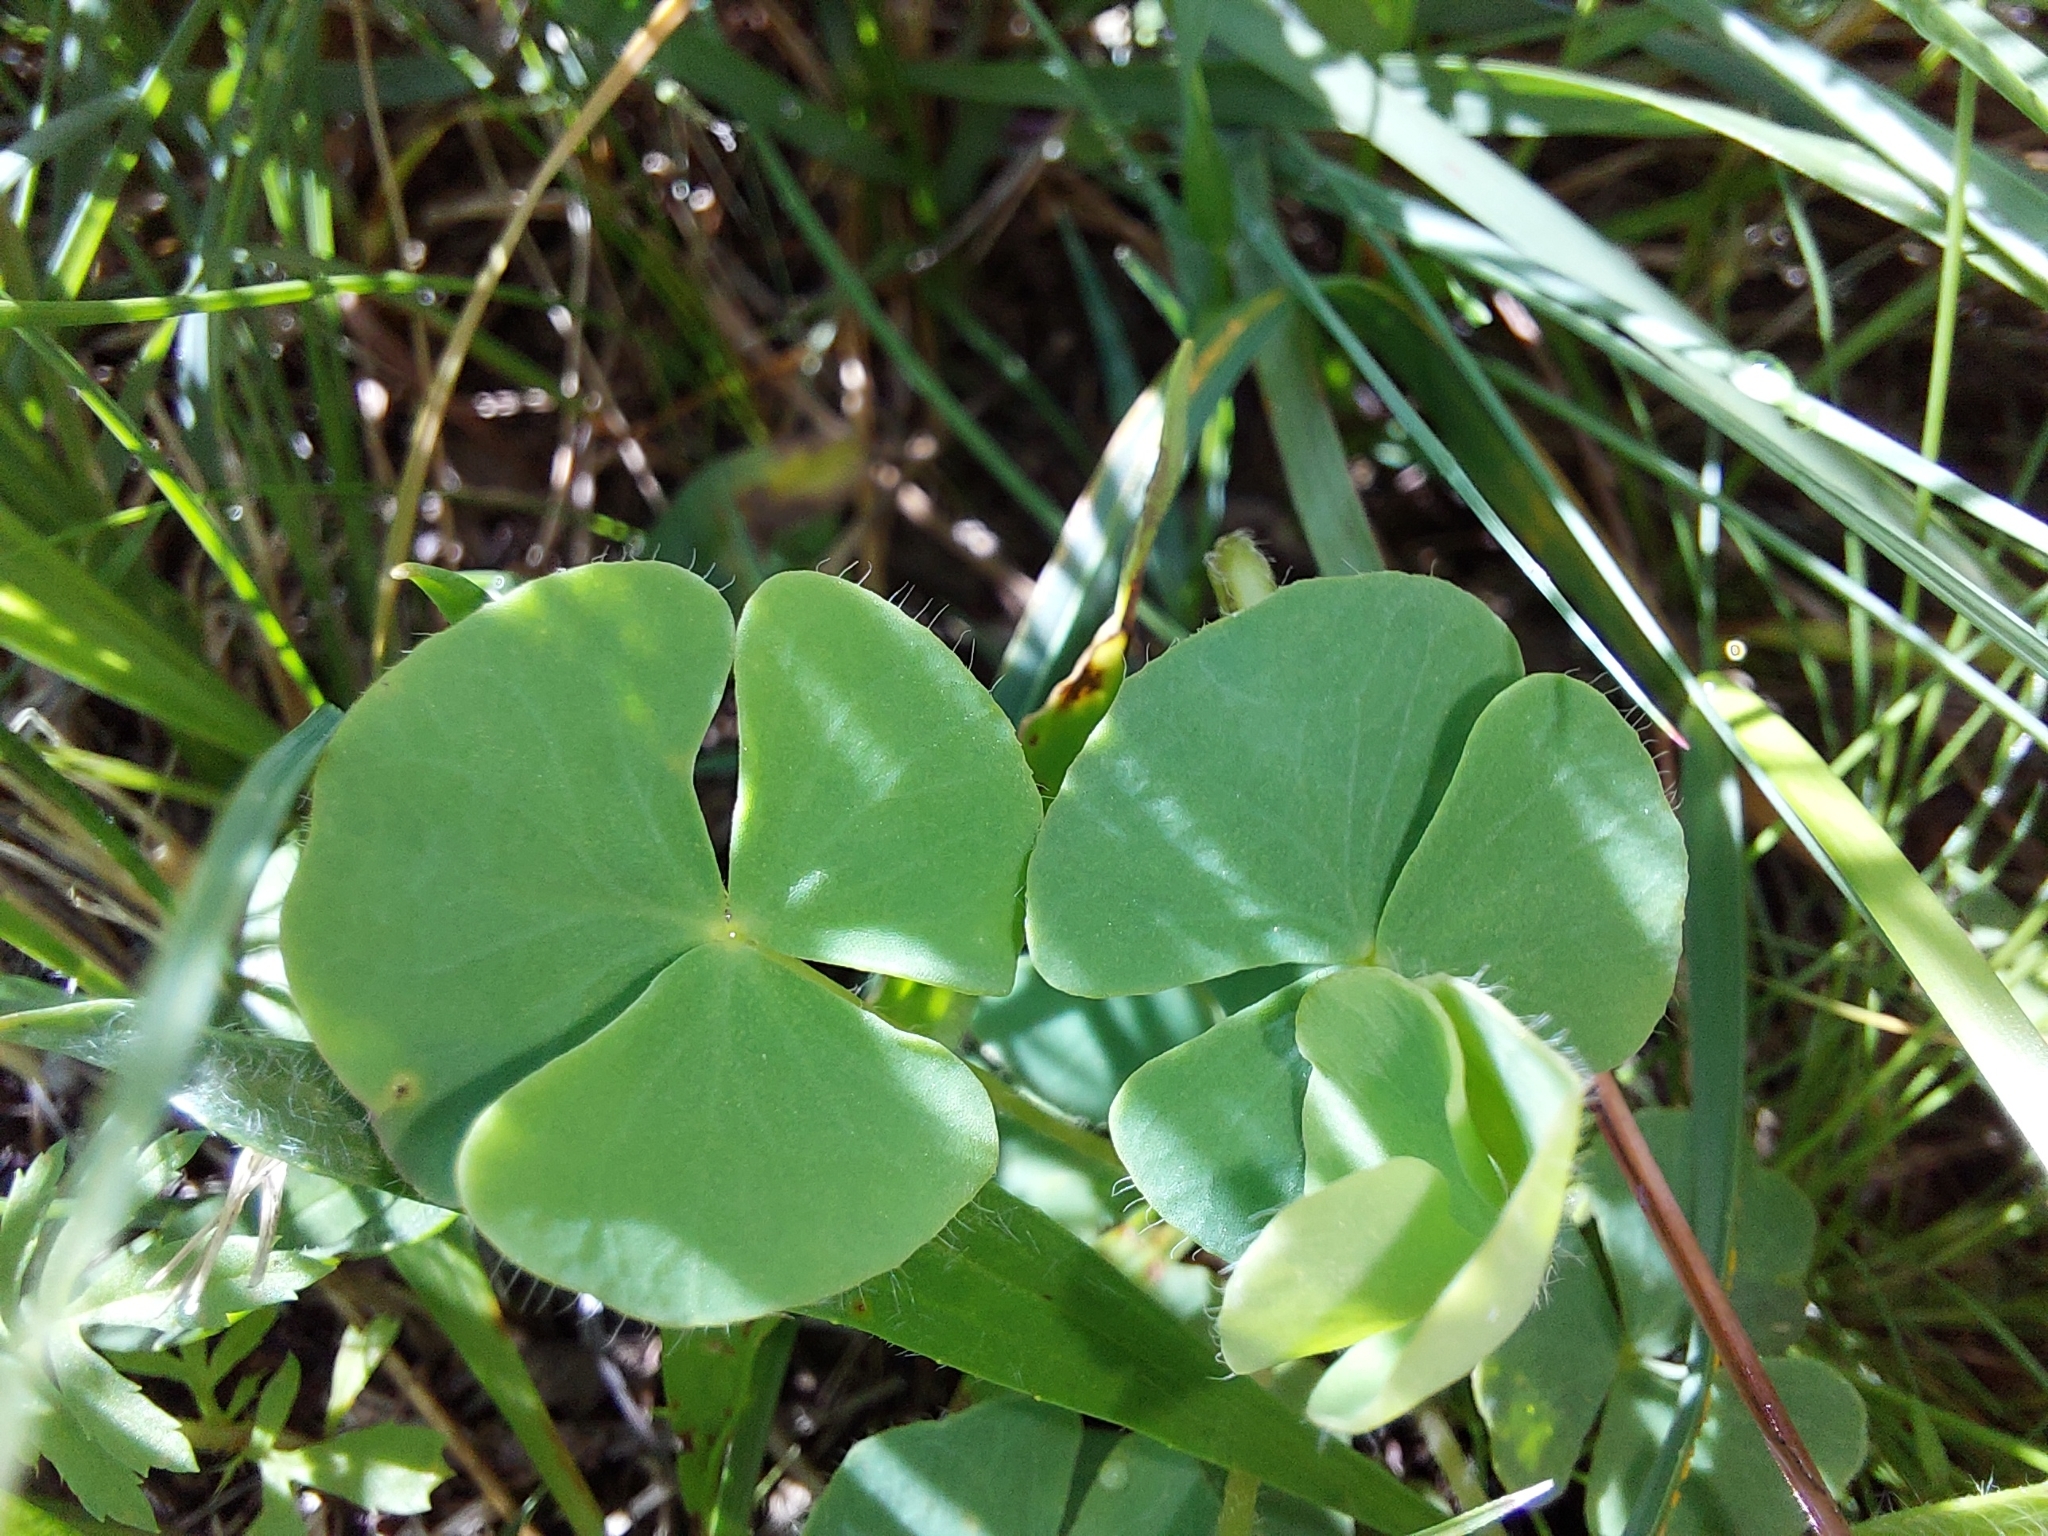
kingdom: Plantae
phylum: Tracheophyta
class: Magnoliopsida
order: Oxalidales
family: Oxalidaceae
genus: Oxalis
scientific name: Oxalis obliquifolia
